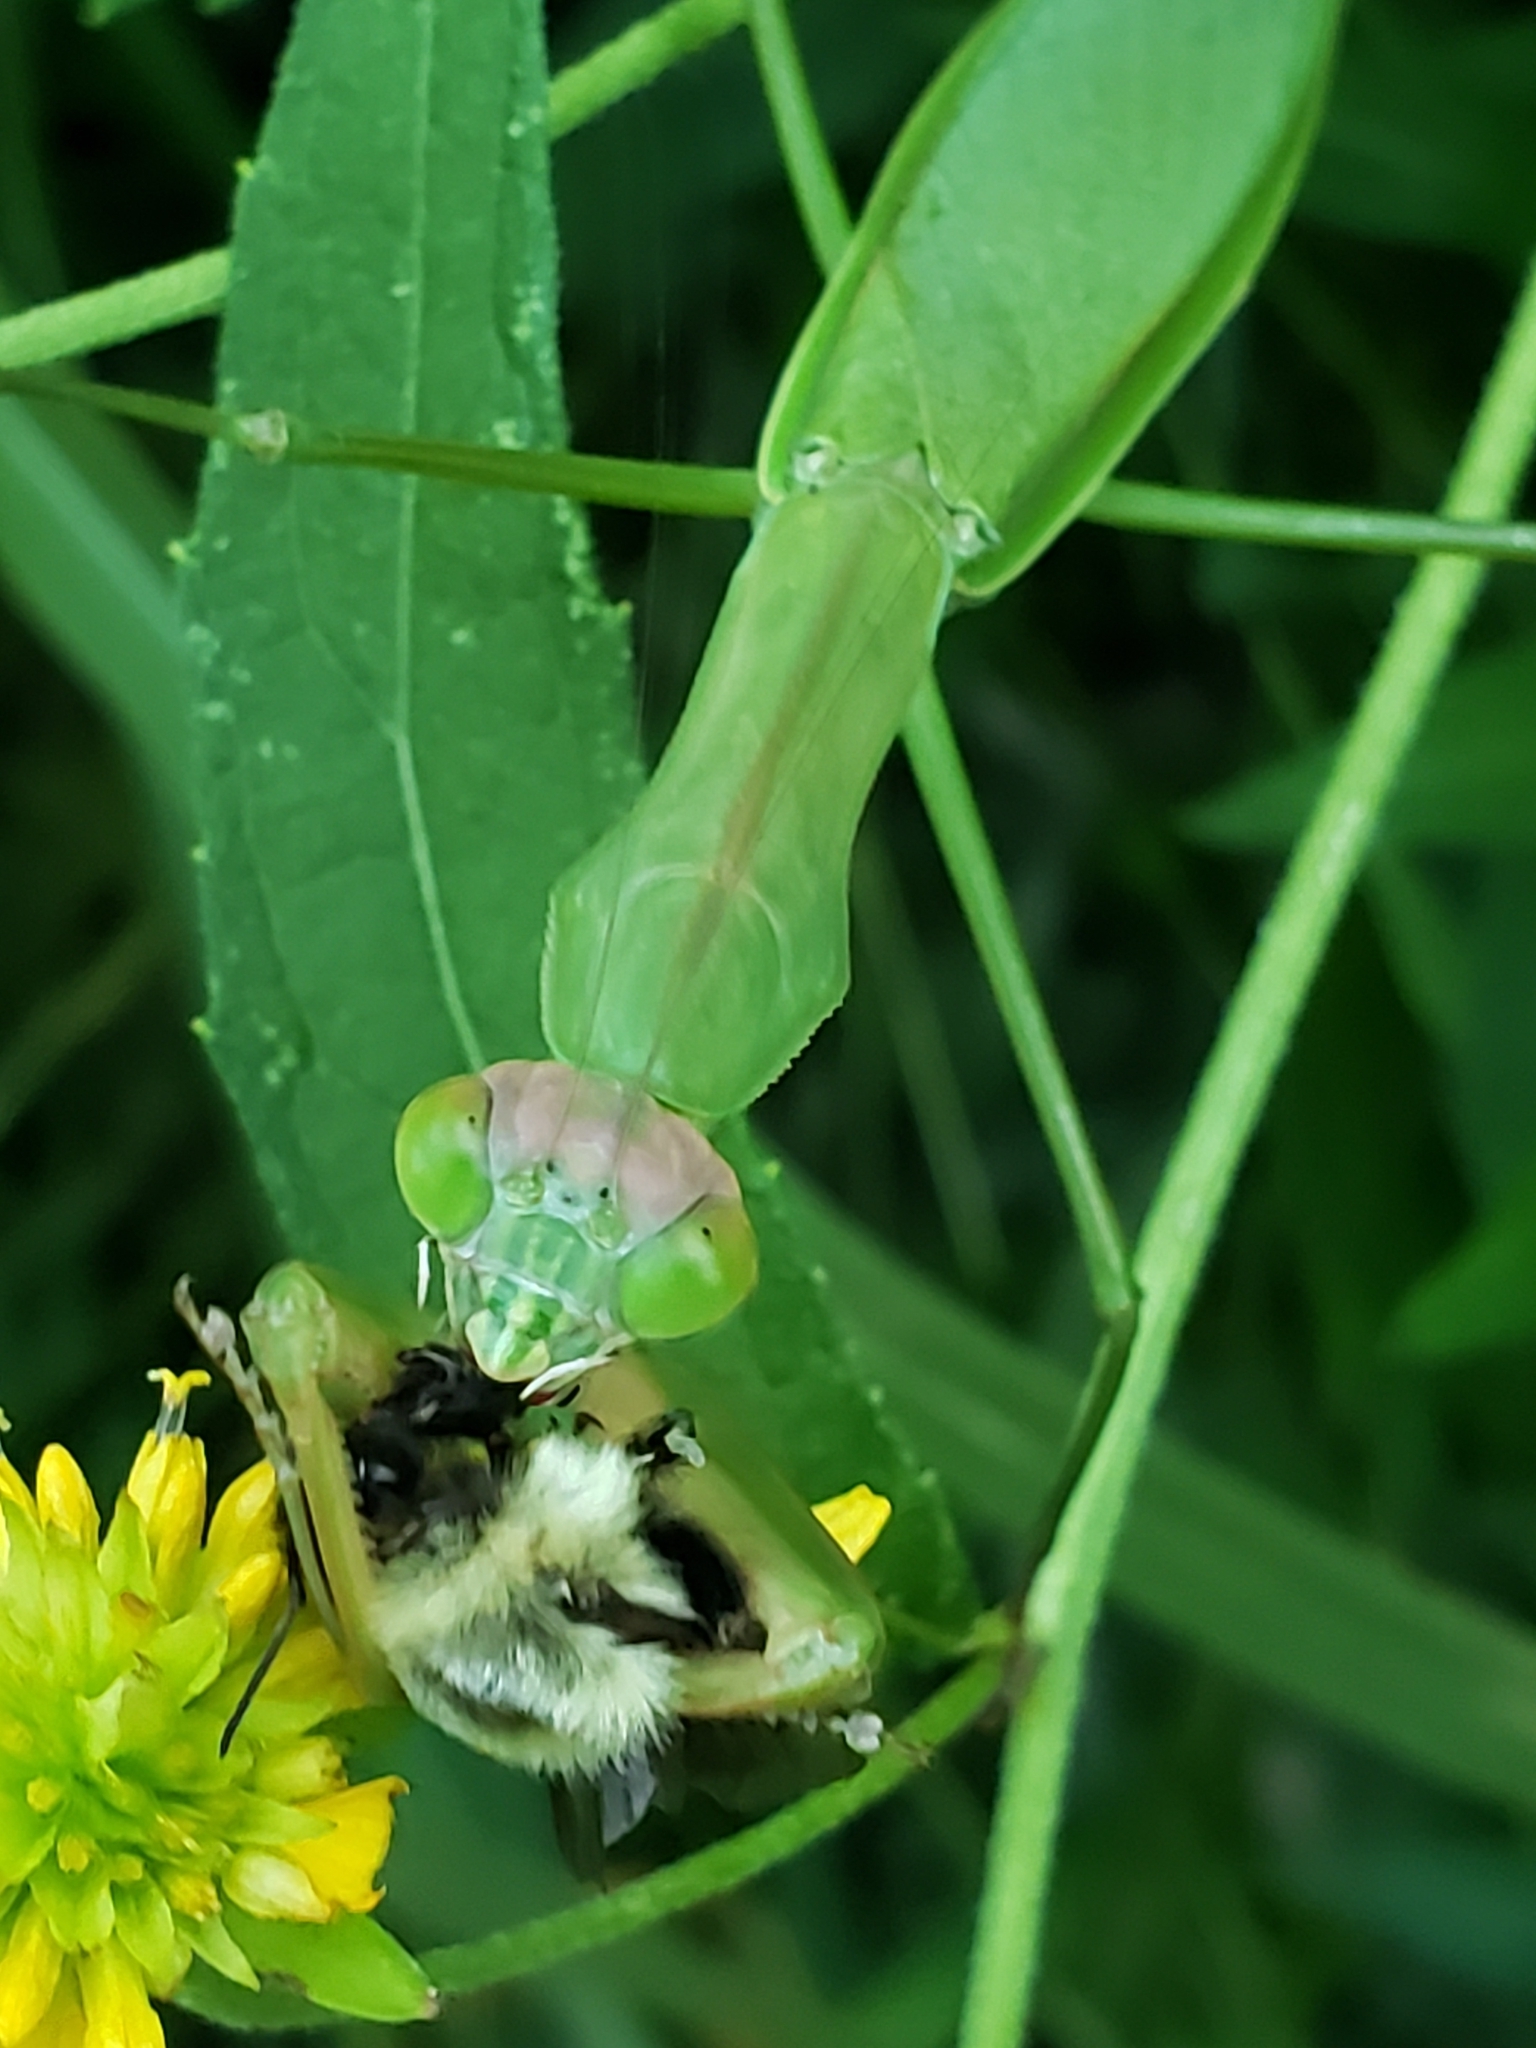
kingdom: Animalia
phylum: Arthropoda
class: Insecta
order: Mantodea
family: Mantidae
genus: Tenodera
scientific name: Tenodera sinensis
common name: Chinese mantis
